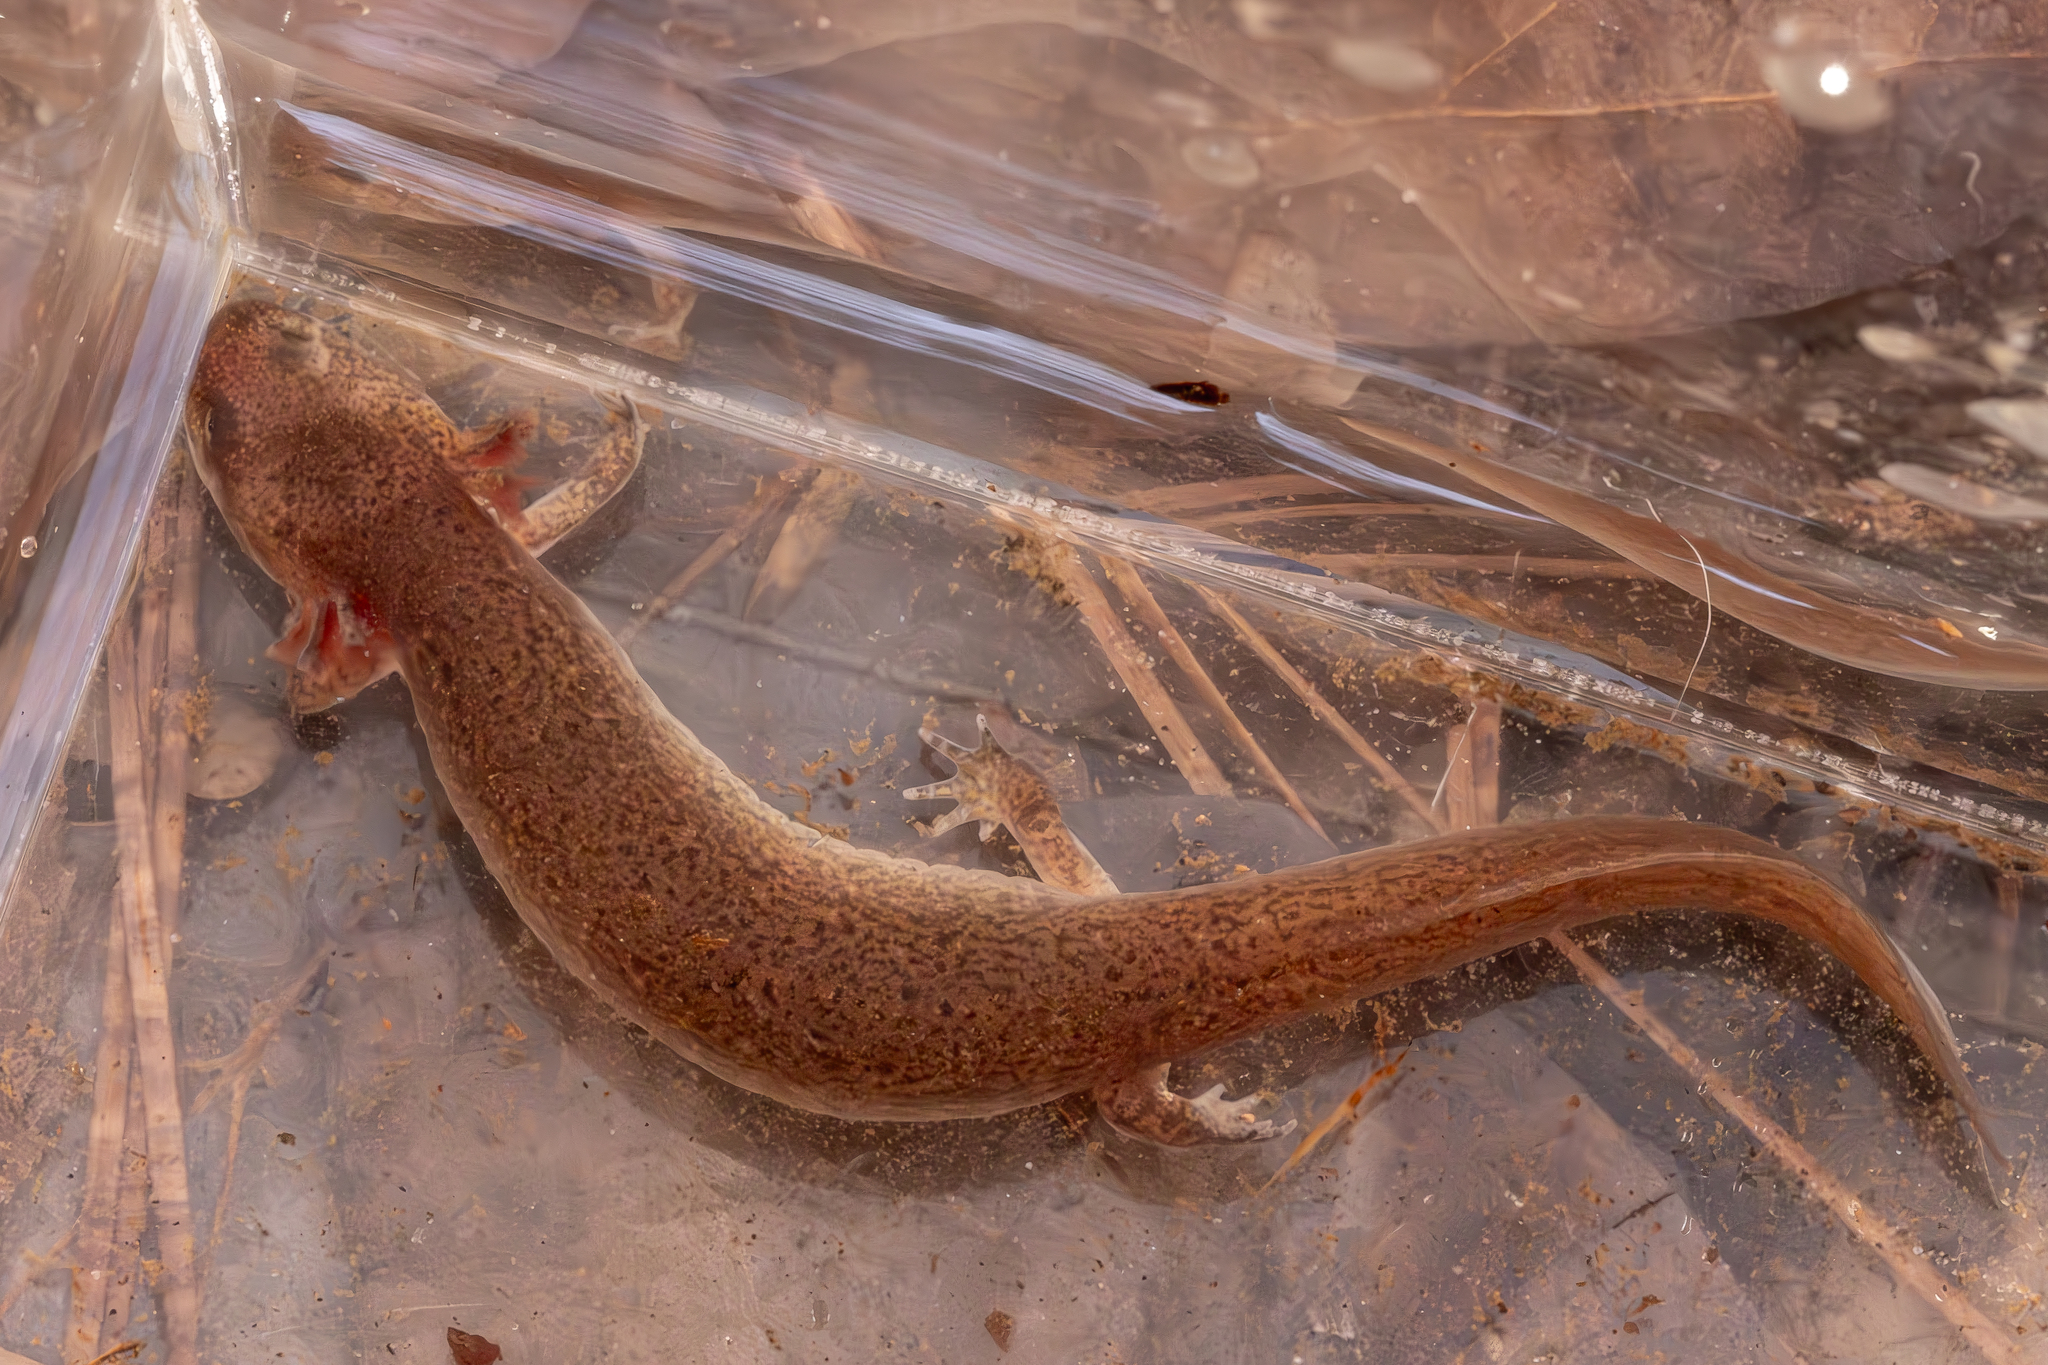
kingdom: Animalia
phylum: Chordata
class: Amphibia
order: Caudata
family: Plethodontidae
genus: Gyrinophilus
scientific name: Gyrinophilus porphyriticus
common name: Spring salamander
